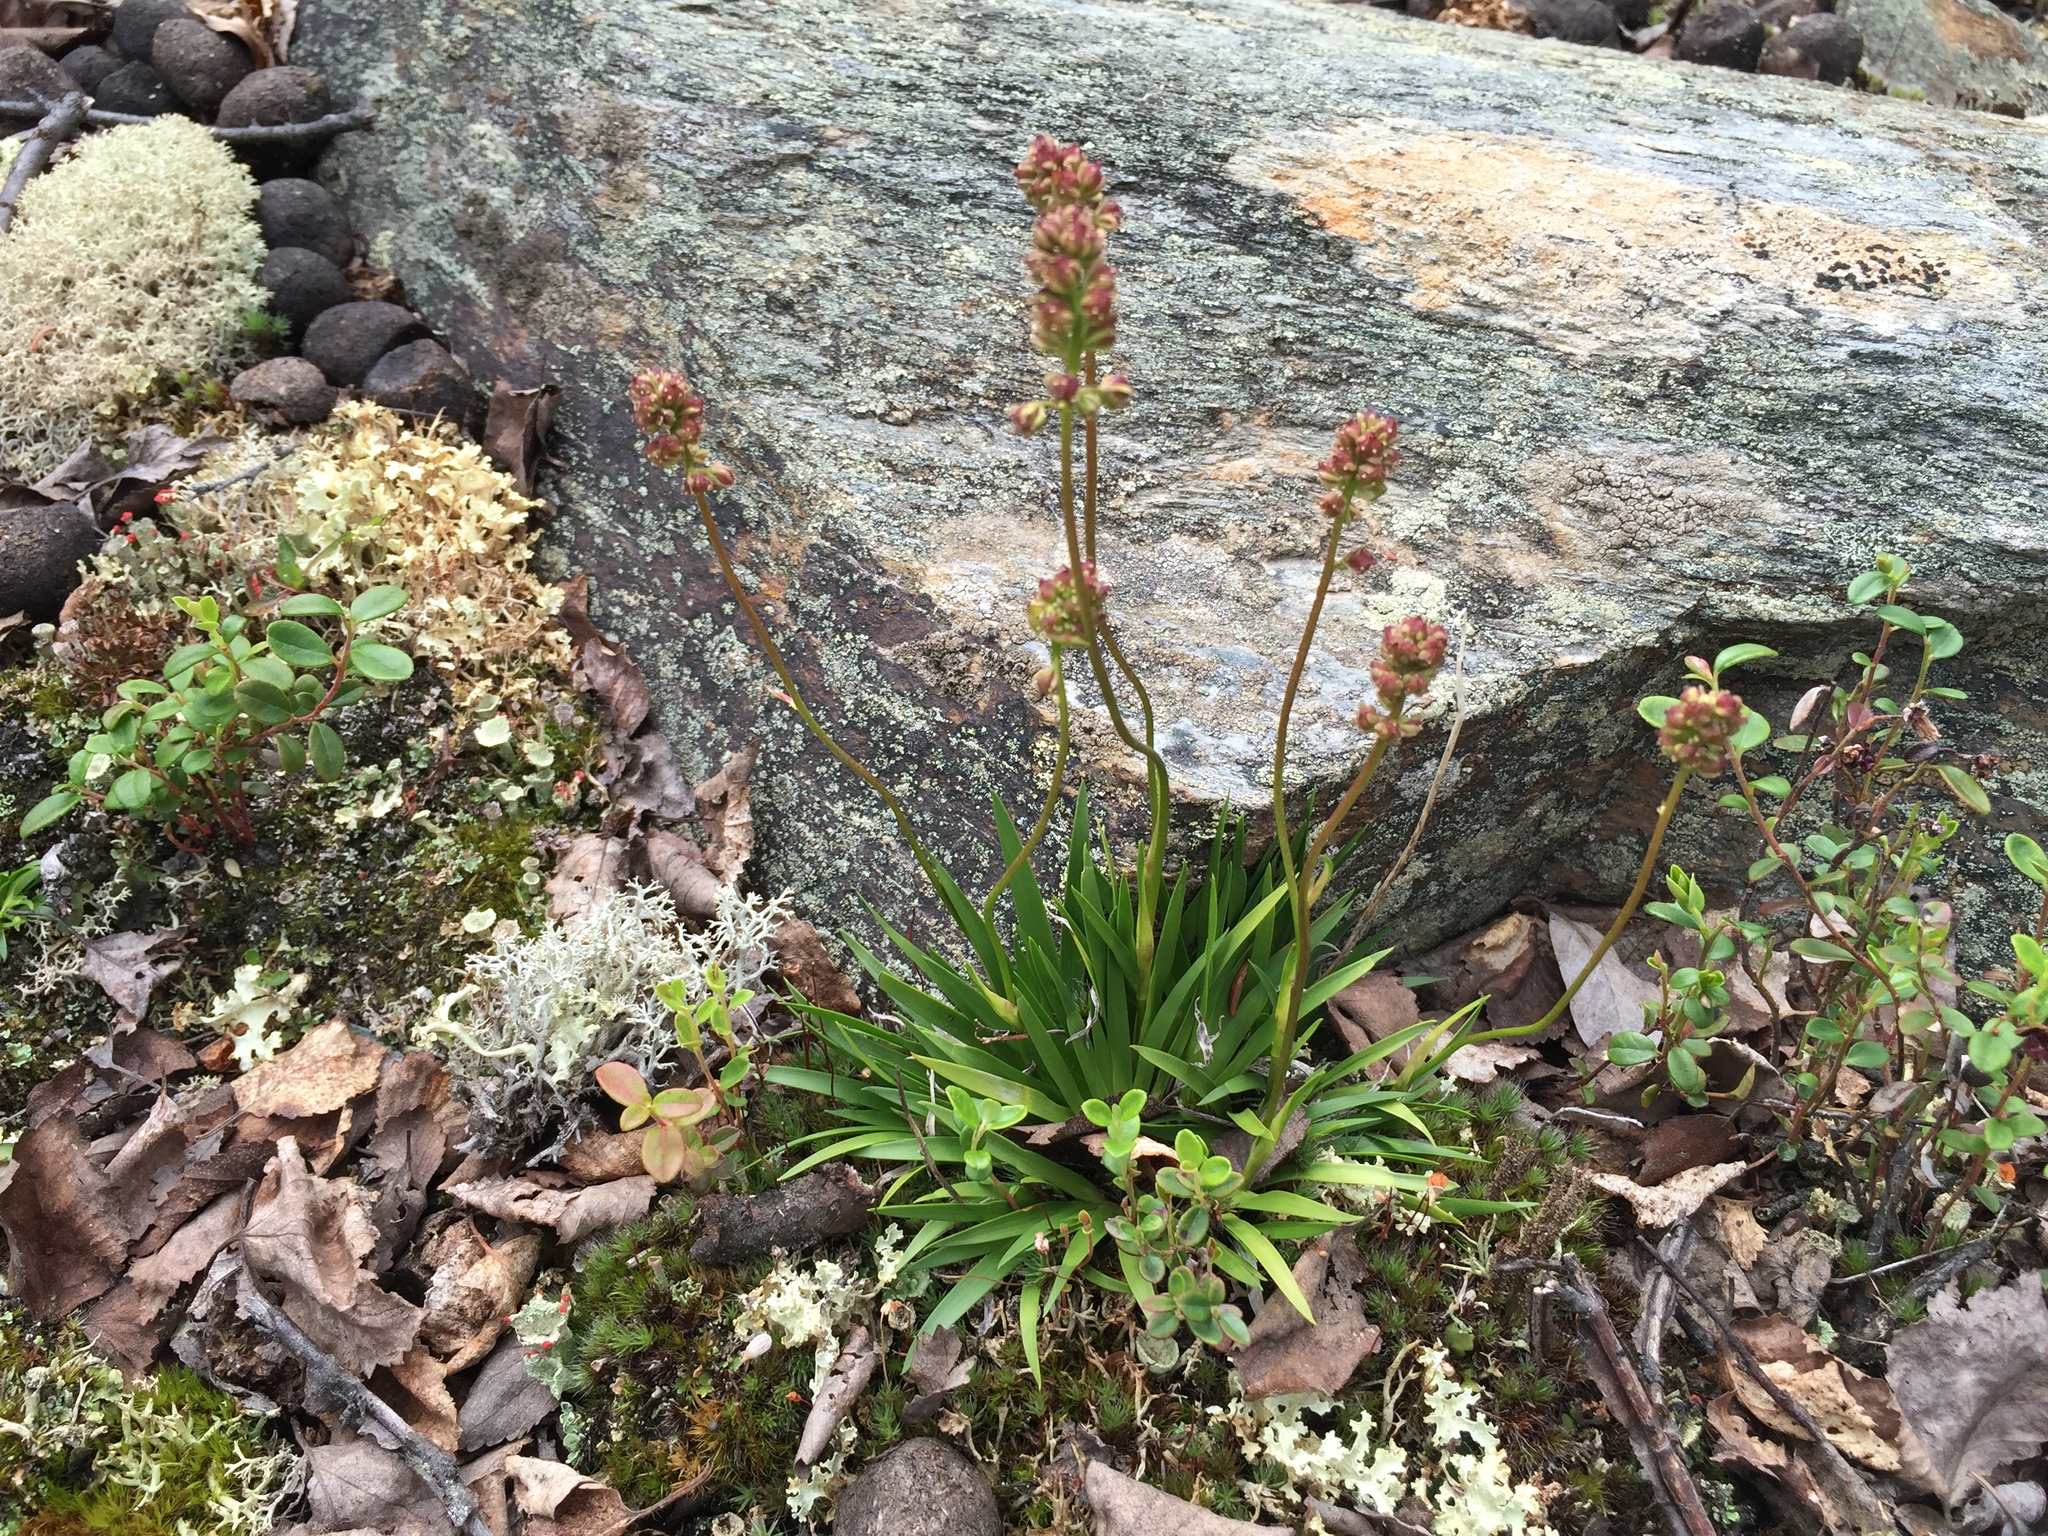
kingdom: Plantae
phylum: Tracheophyta
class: Liliopsida
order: Alismatales
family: Tofieldiaceae
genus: Tofieldia
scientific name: Tofieldia coccinea
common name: Northern false asphodel
